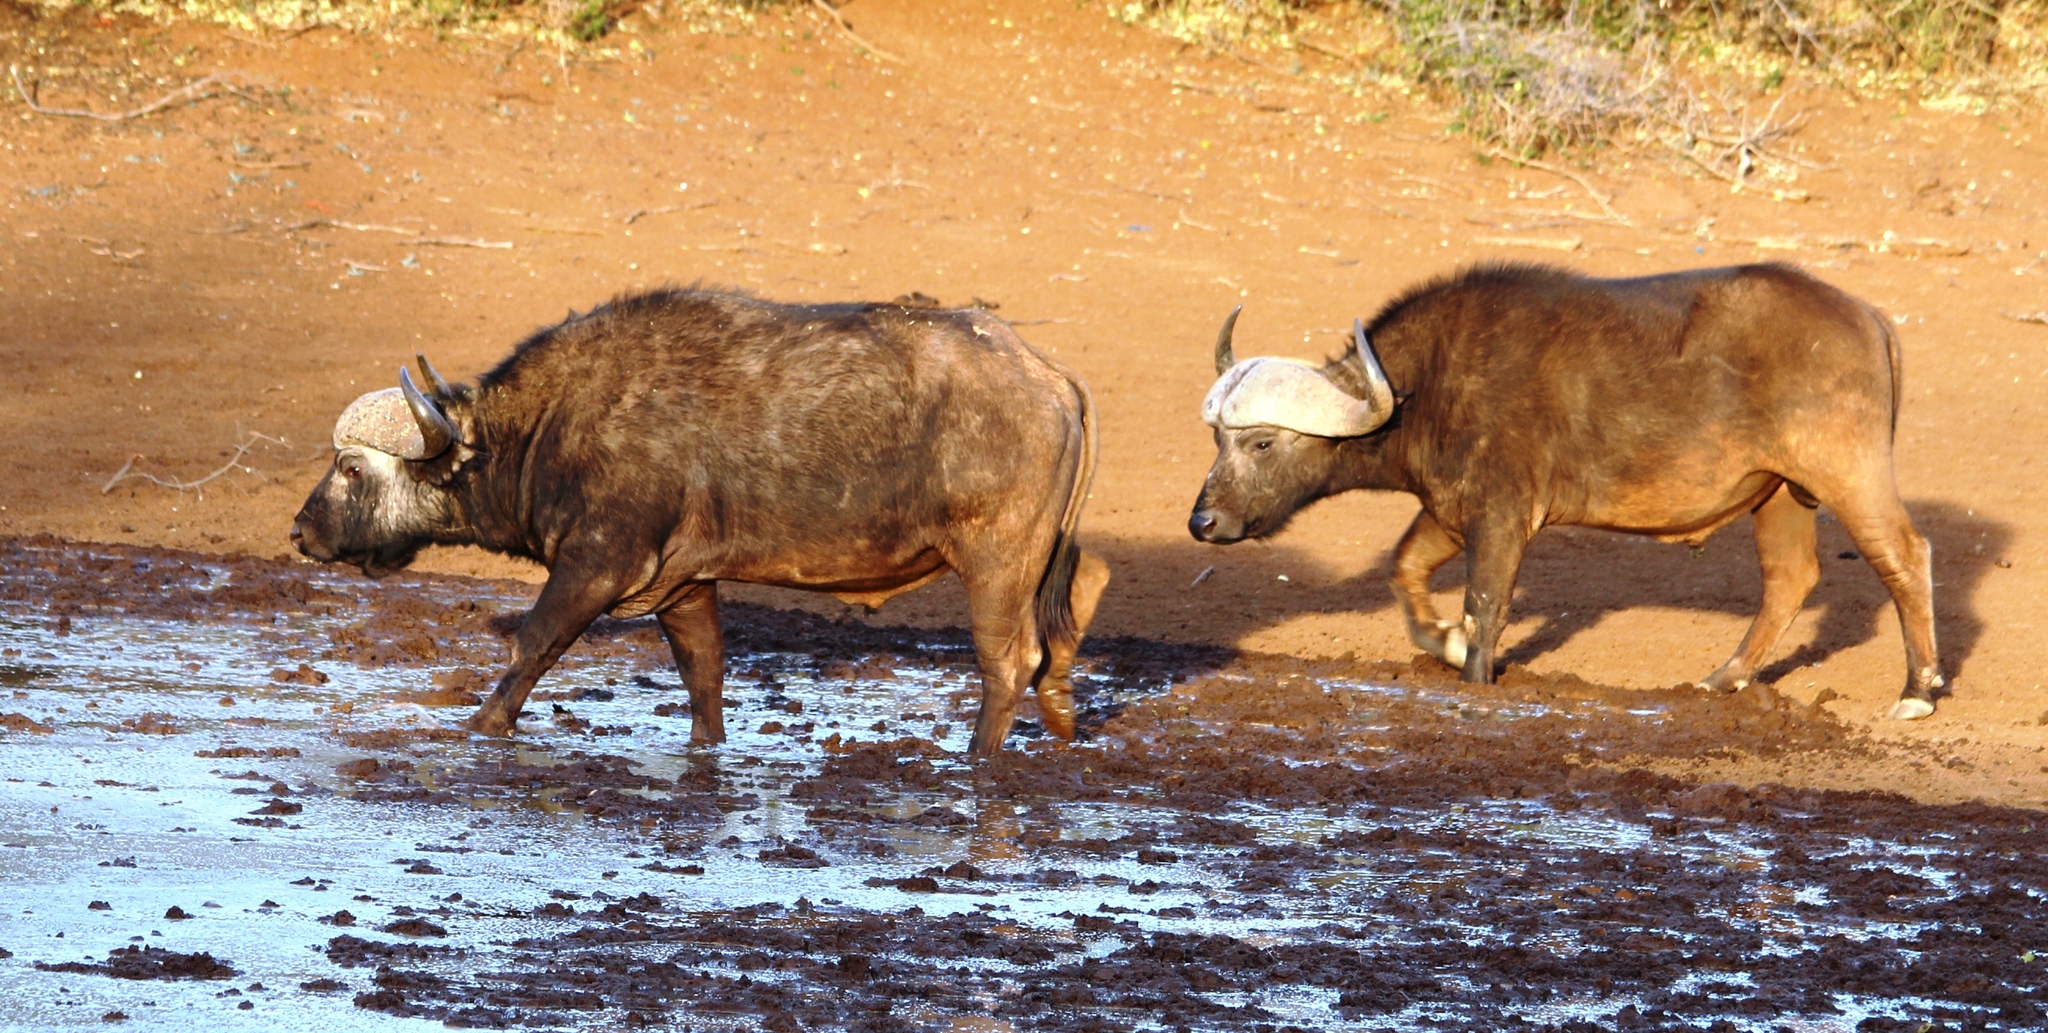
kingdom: Animalia
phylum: Chordata
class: Mammalia
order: Artiodactyla
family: Bovidae
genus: Syncerus
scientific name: Syncerus caffer
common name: African buffalo
